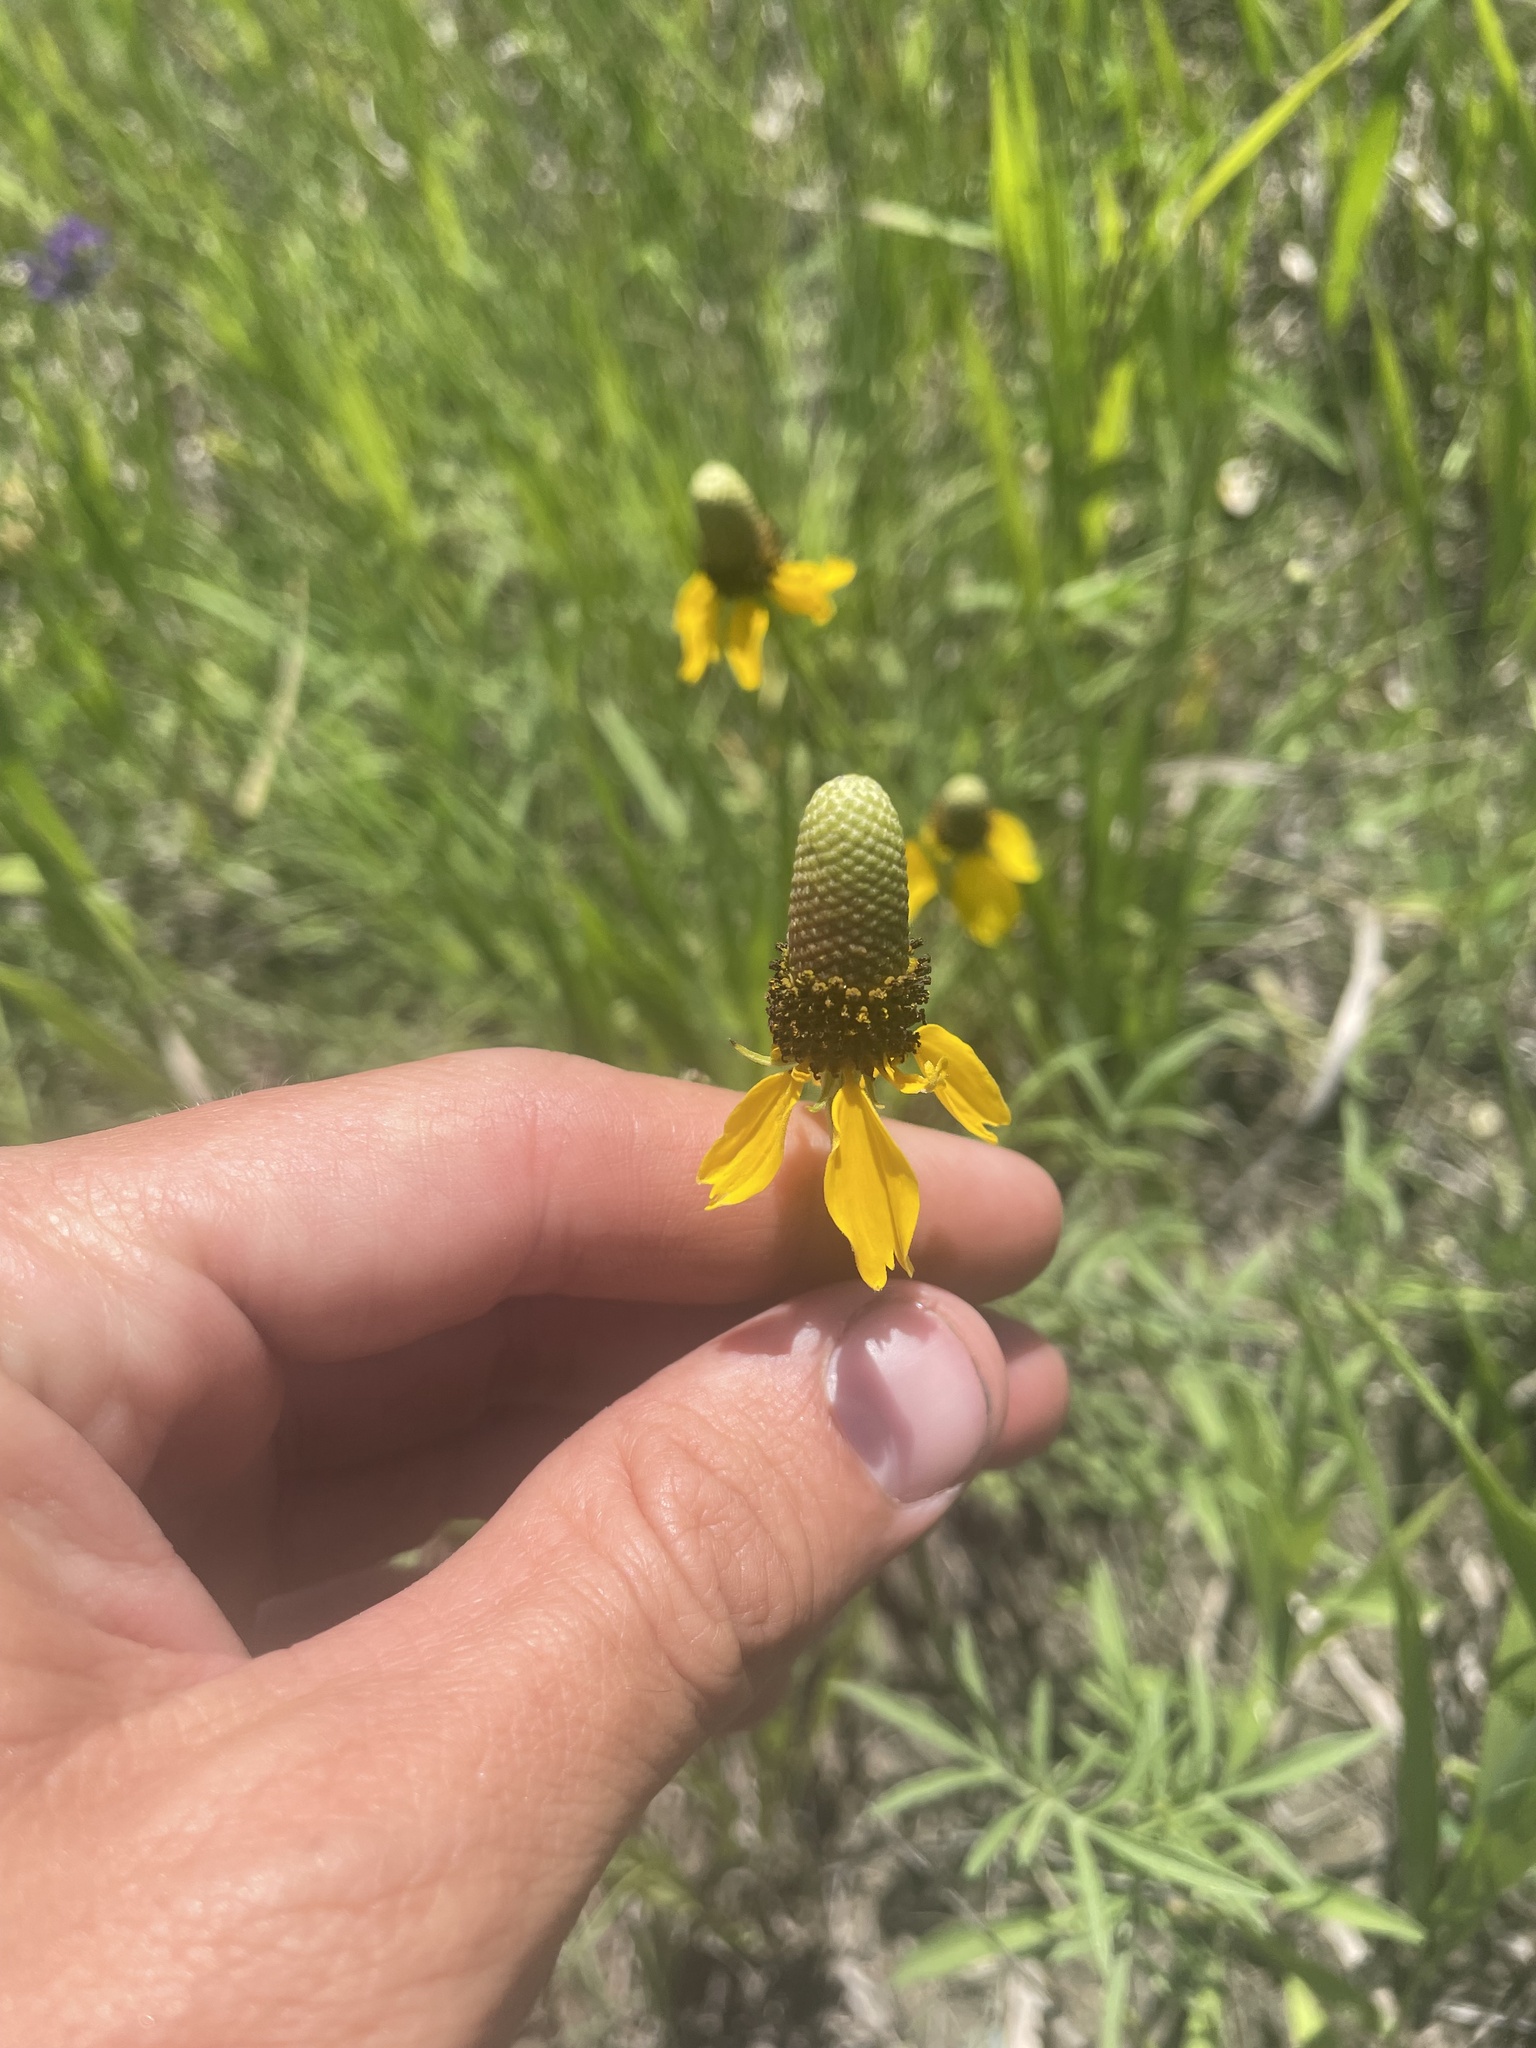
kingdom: Plantae
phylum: Tracheophyta
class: Magnoliopsida
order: Asterales
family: Asteraceae
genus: Ratibida
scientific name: Ratibida columnifera
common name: Prairie coneflower
